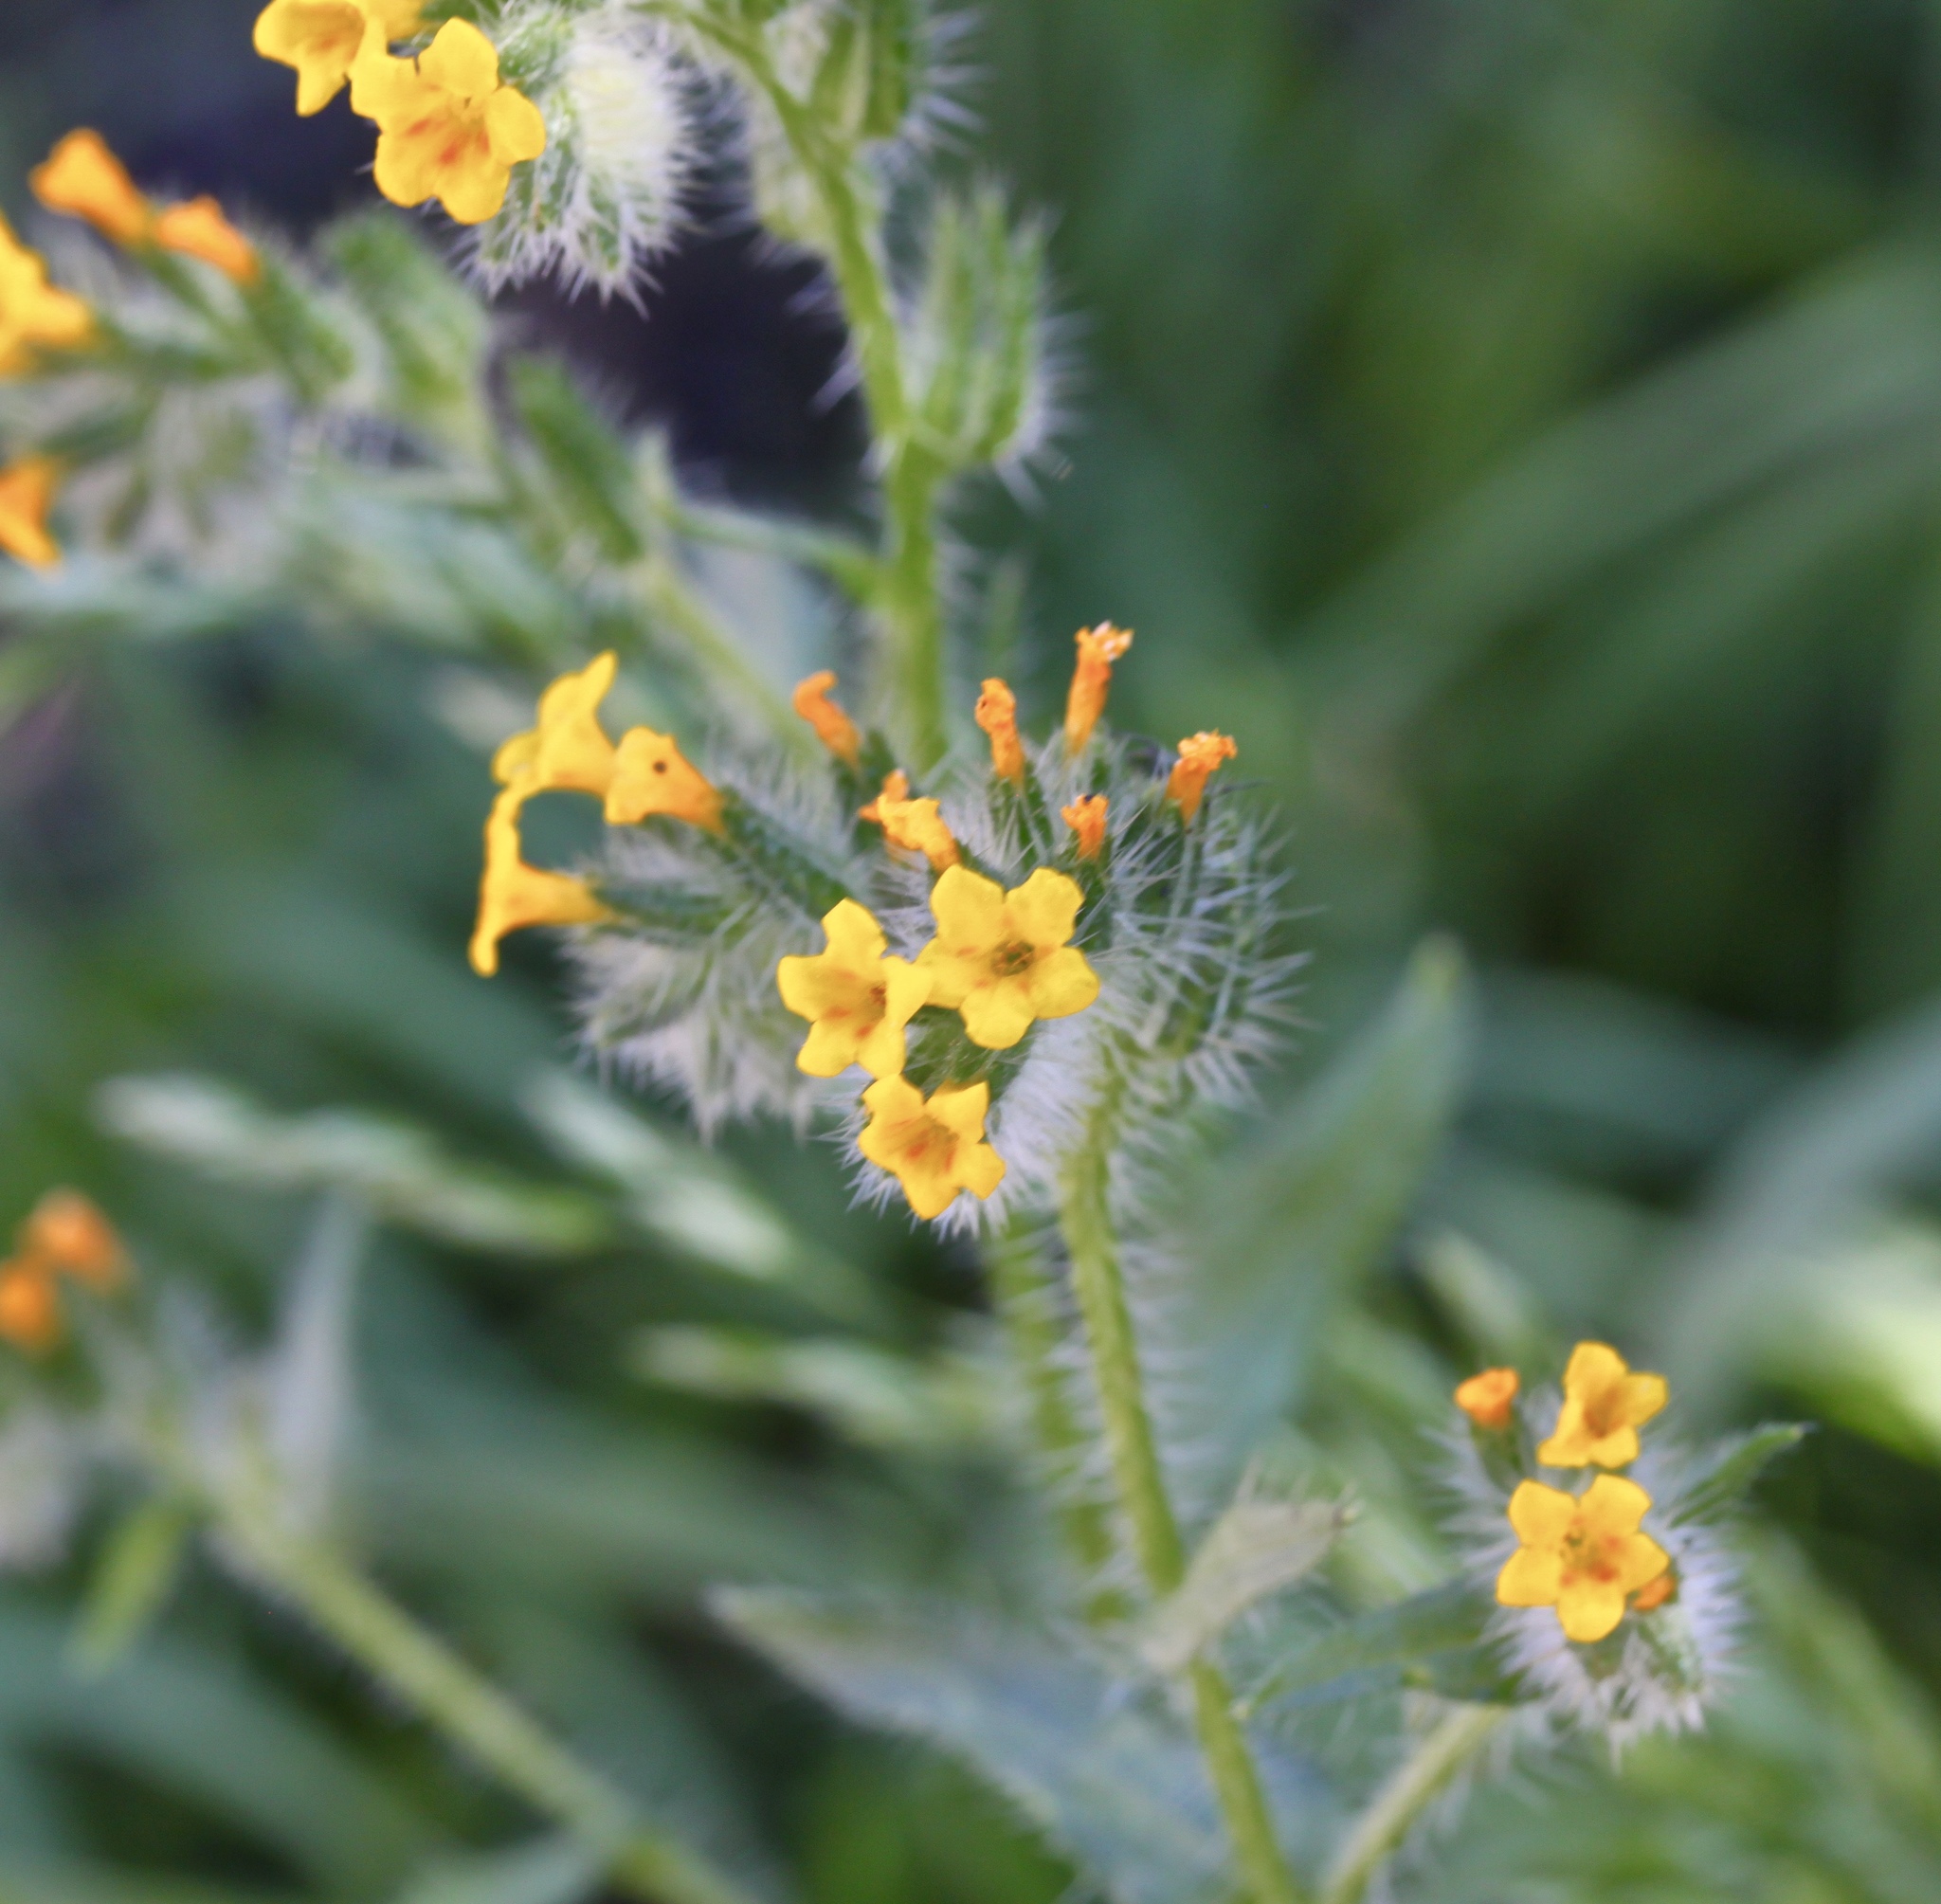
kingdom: Plantae
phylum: Tracheophyta
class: Magnoliopsida
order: Boraginales
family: Boraginaceae
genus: Amsinckia
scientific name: Amsinckia menziesii
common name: Menzies' fiddleneck
